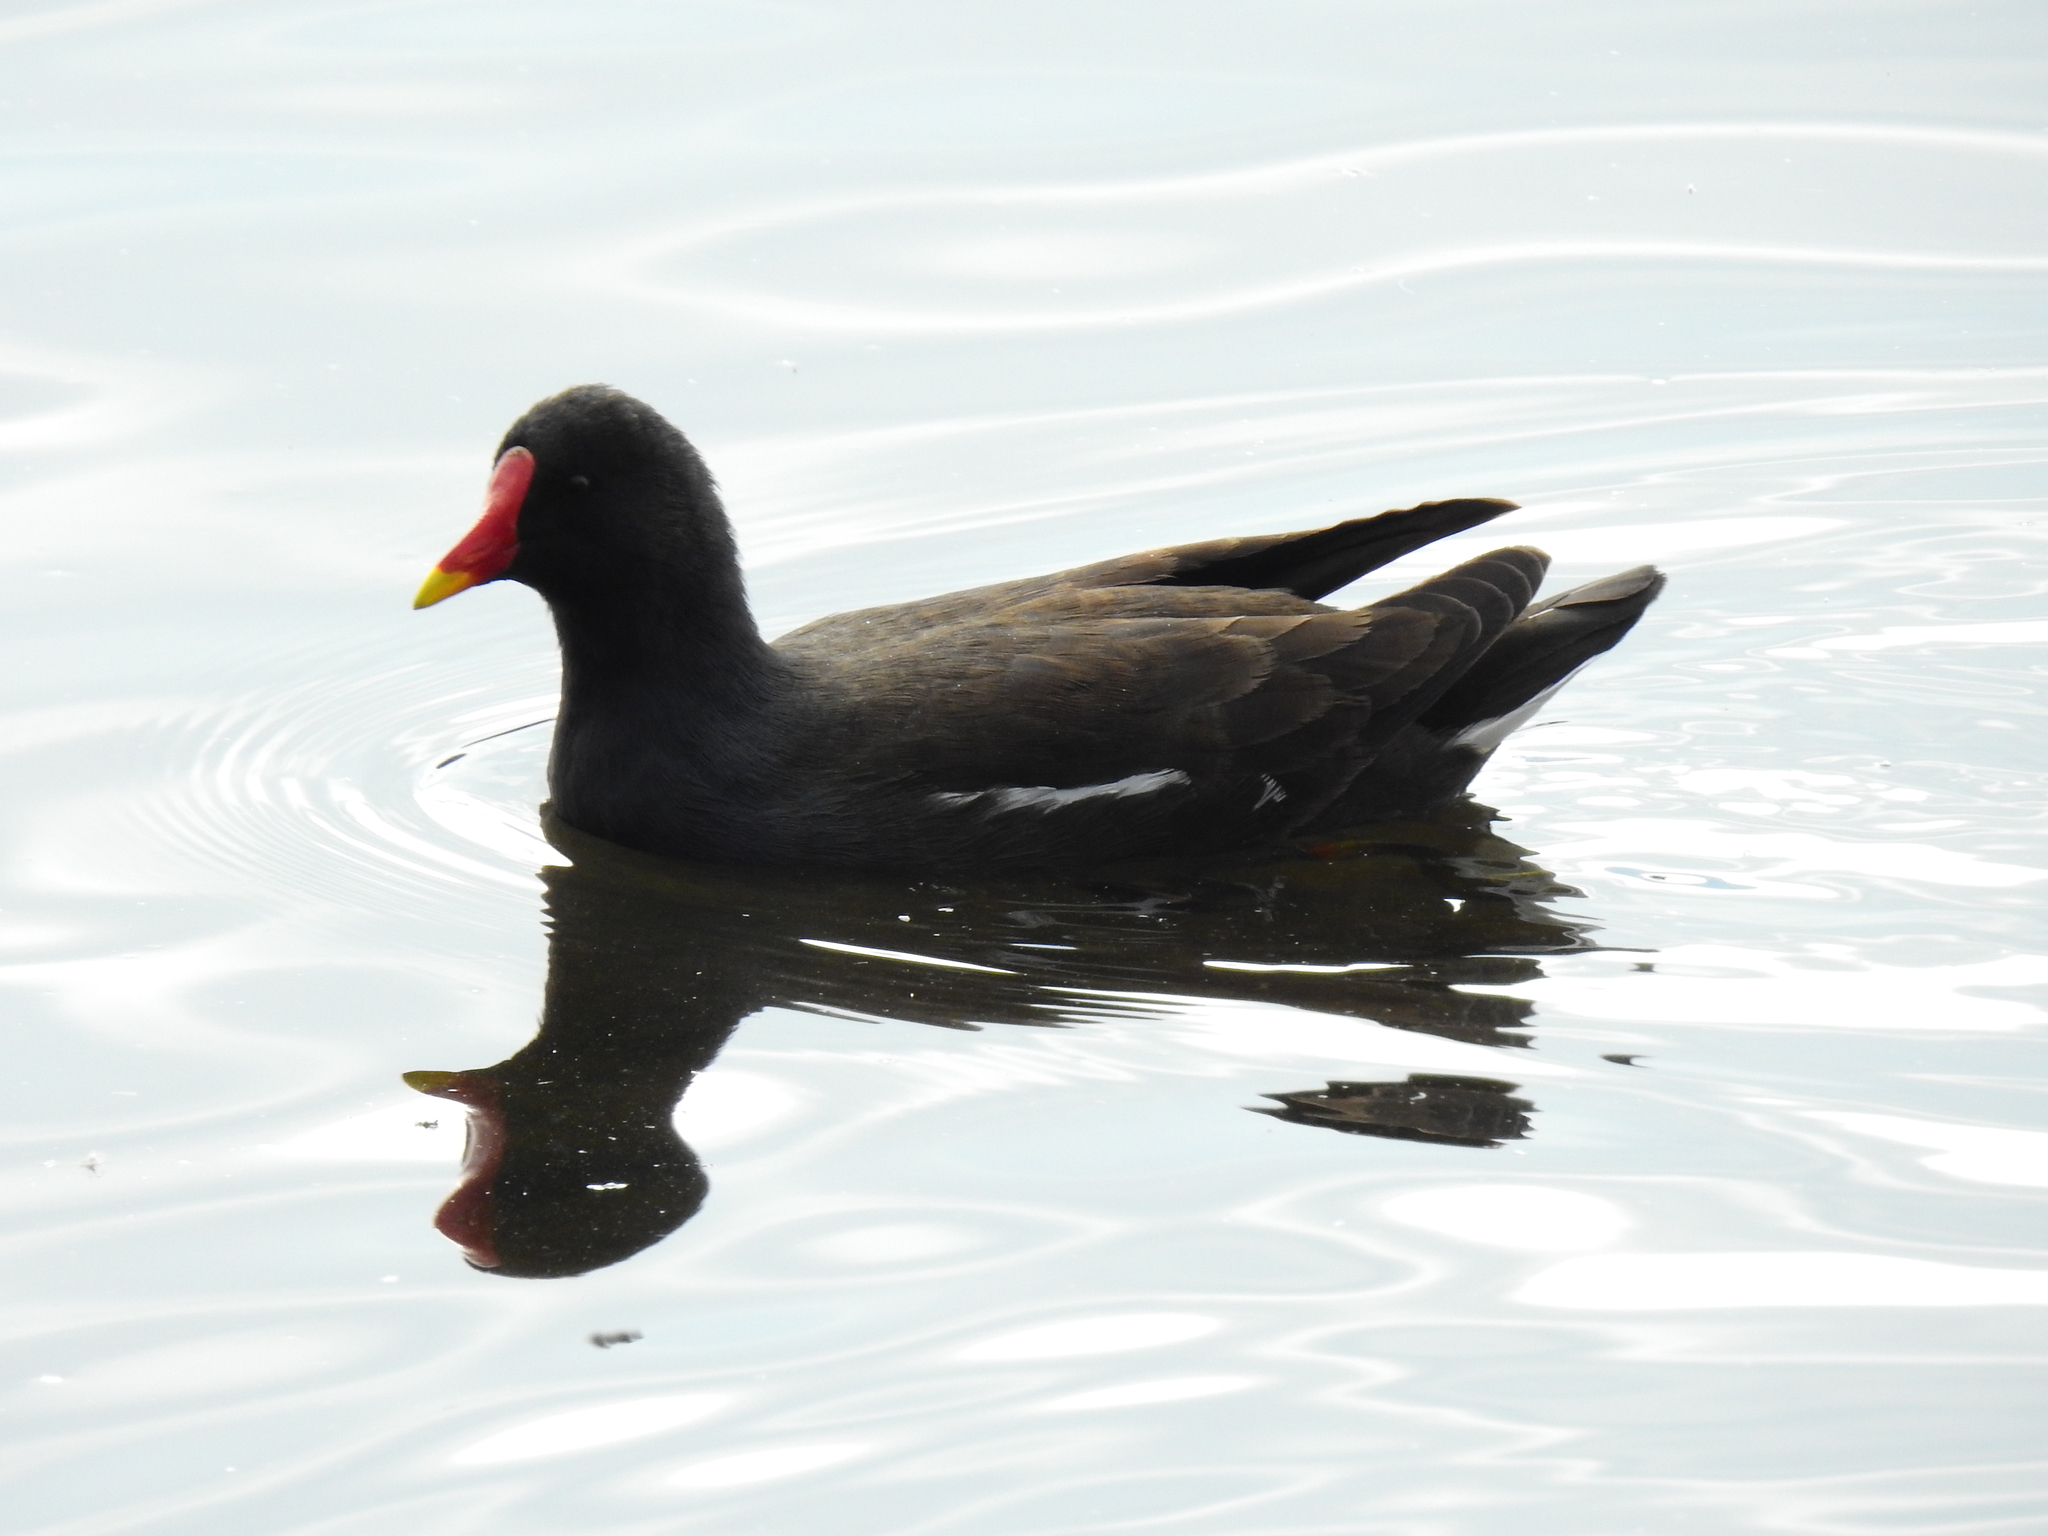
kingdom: Animalia
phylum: Chordata
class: Aves
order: Gruiformes
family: Rallidae
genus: Gallinula
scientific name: Gallinula chloropus
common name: Common moorhen
